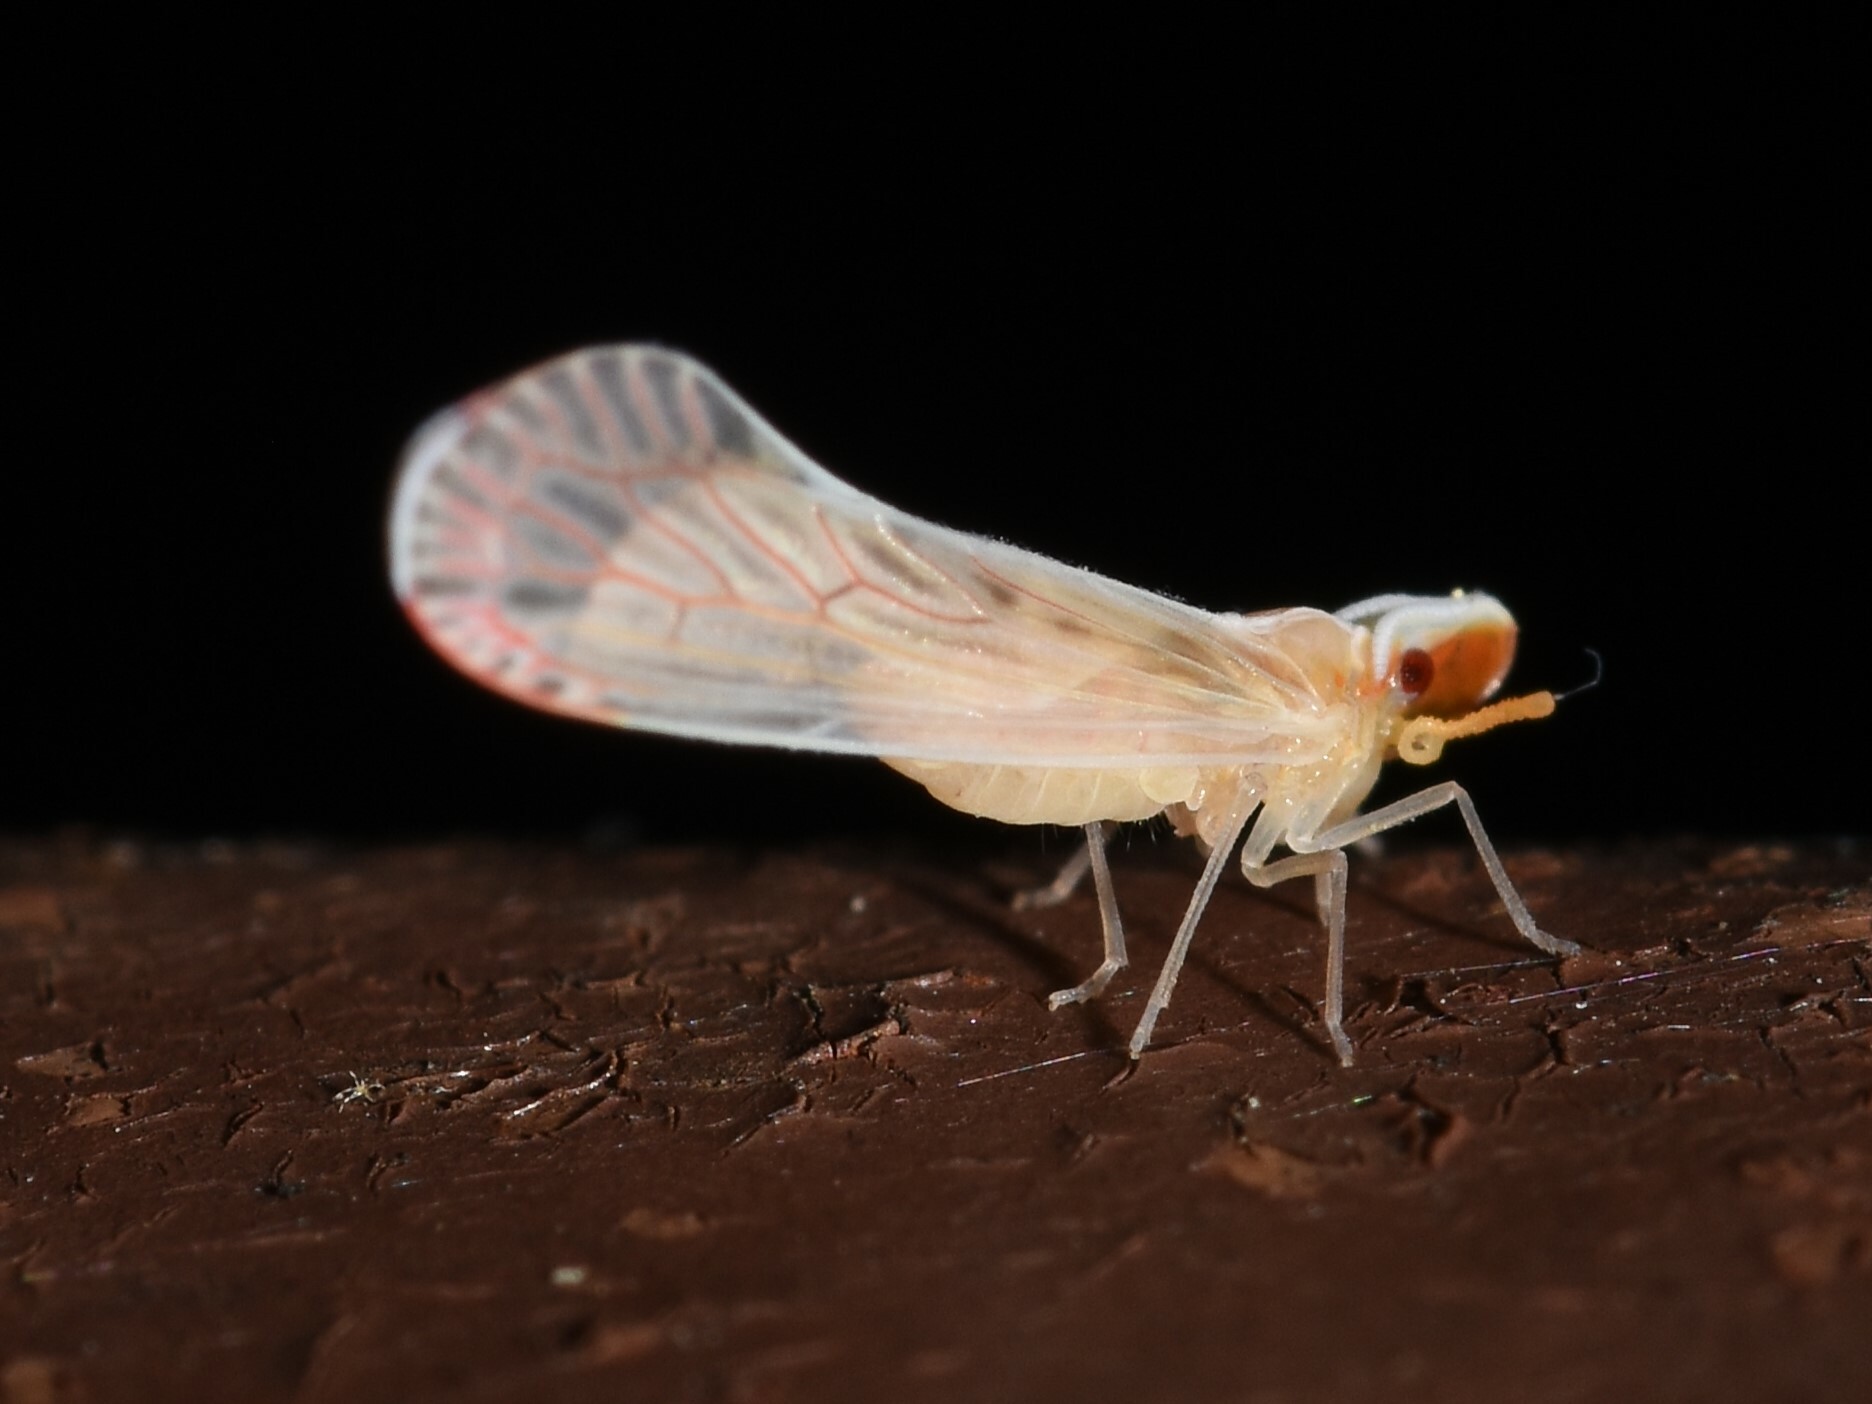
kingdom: Animalia
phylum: Arthropoda
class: Insecta
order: Hemiptera
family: Derbidae
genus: Shellenius
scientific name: Shellenius schellenbergii
